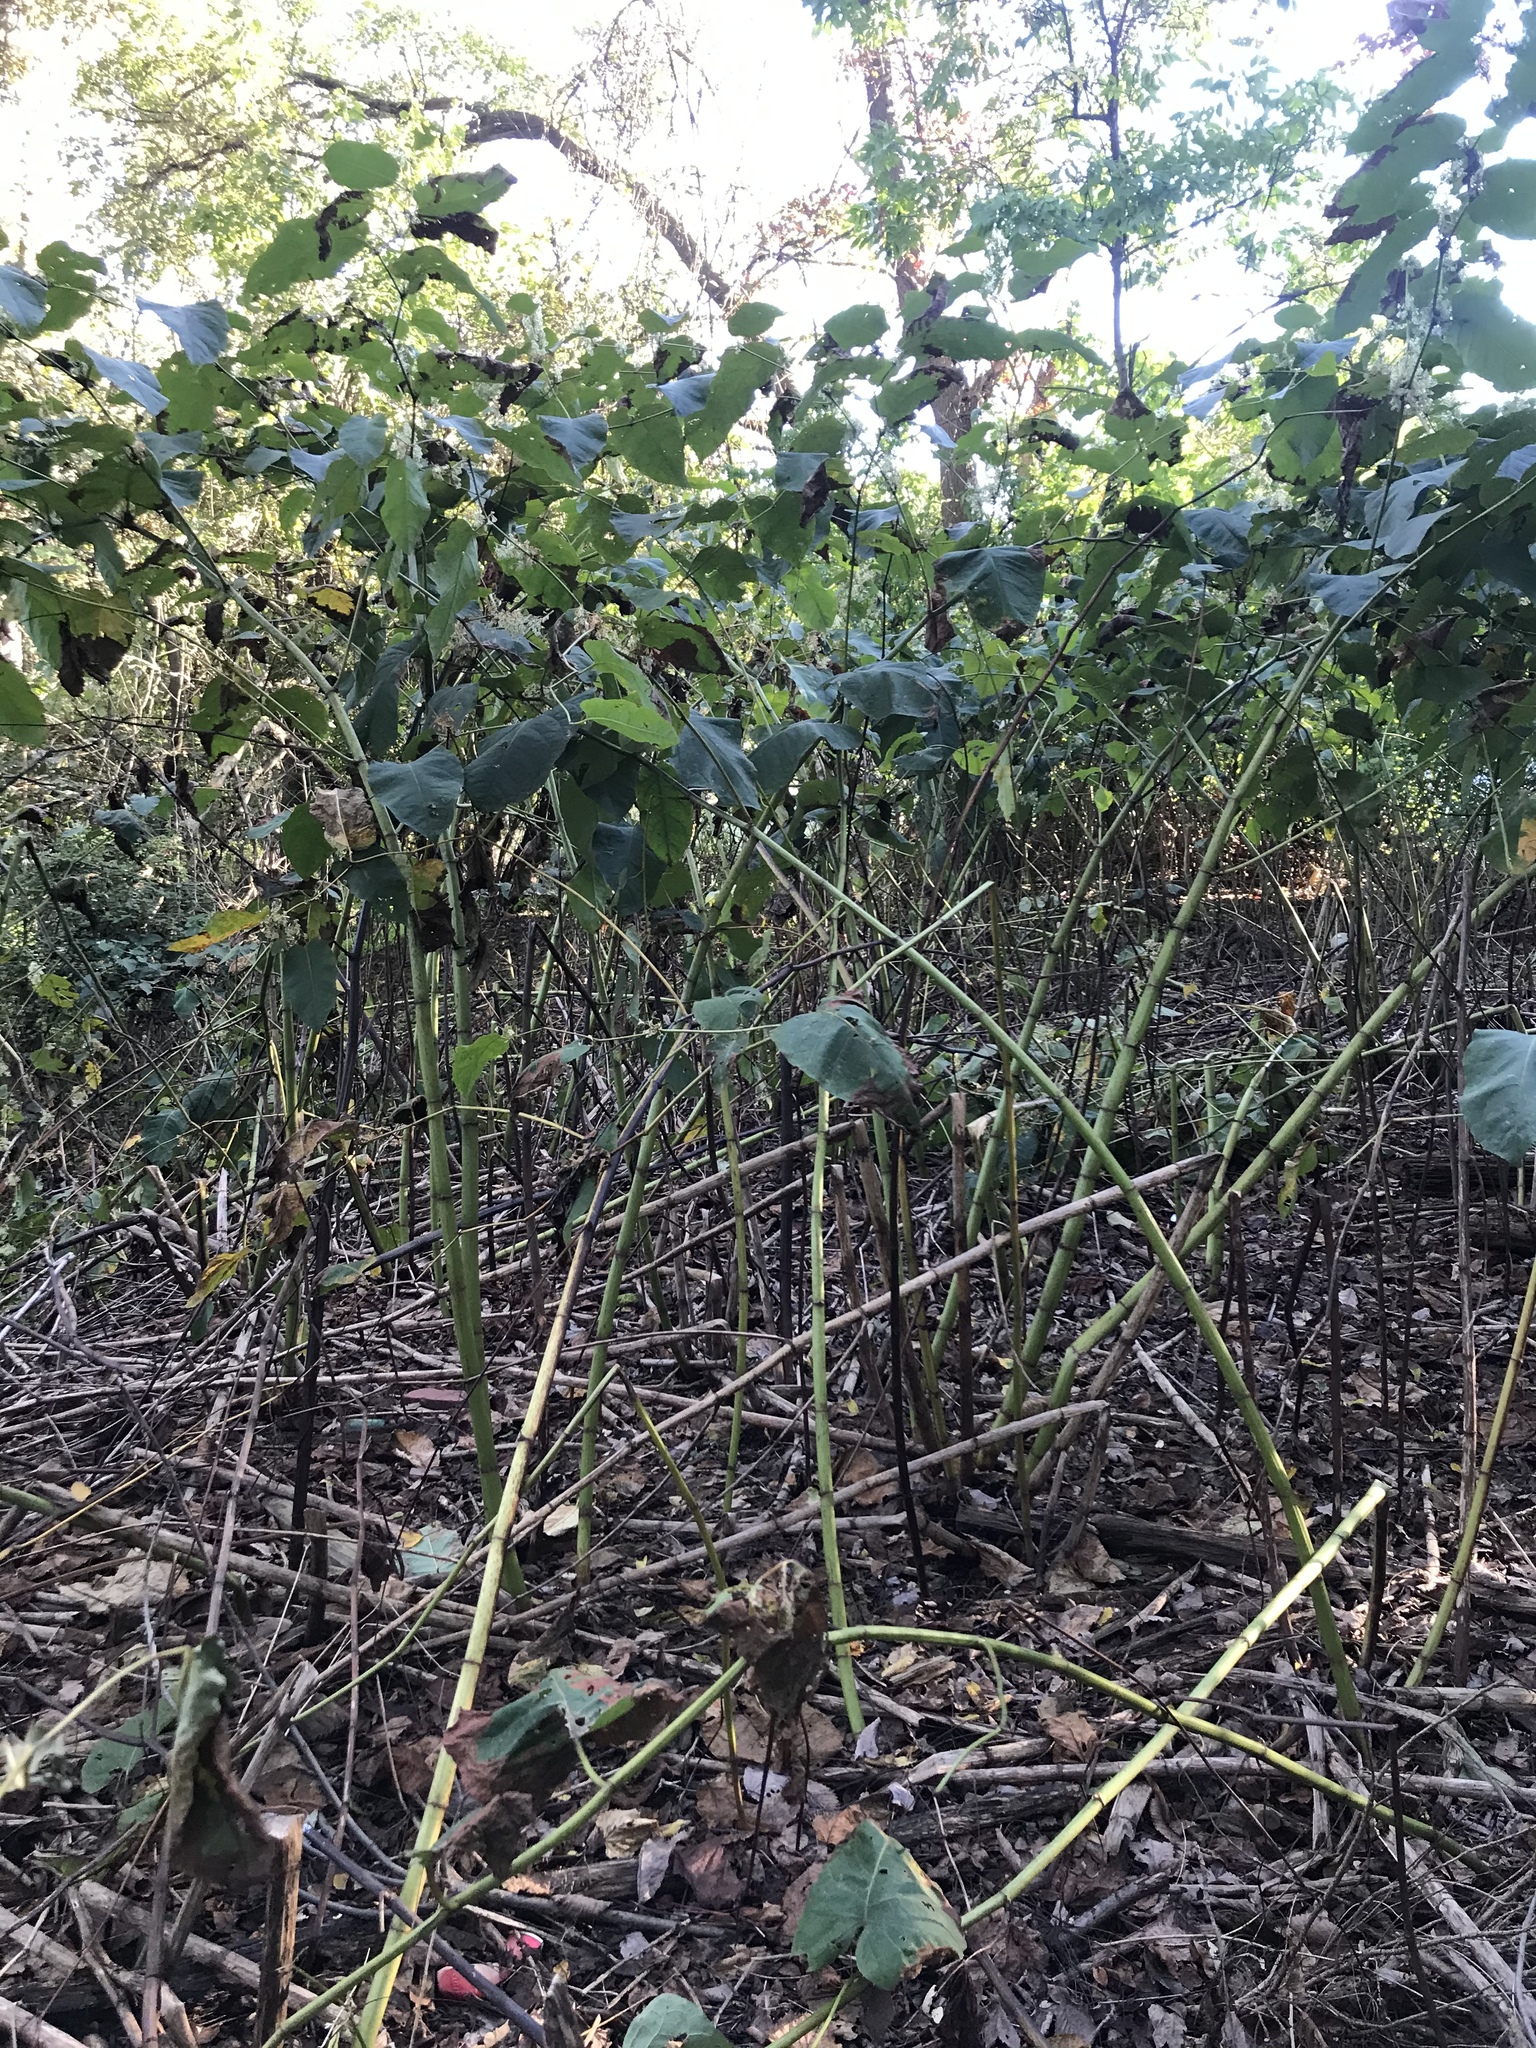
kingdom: Plantae
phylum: Tracheophyta
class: Magnoliopsida
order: Caryophyllales
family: Polygonaceae
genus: Reynoutria
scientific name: Reynoutria japonica
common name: Japanese knotweed
